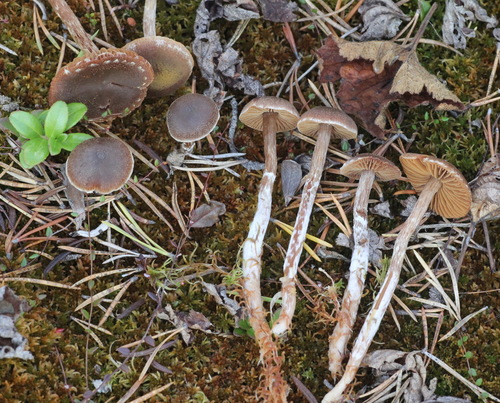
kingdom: Fungi
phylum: Basidiomycota
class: Agaricomycetes
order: Agaricales
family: Cortinariaceae
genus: Cortinarius
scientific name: Cortinarius flos-paludis
